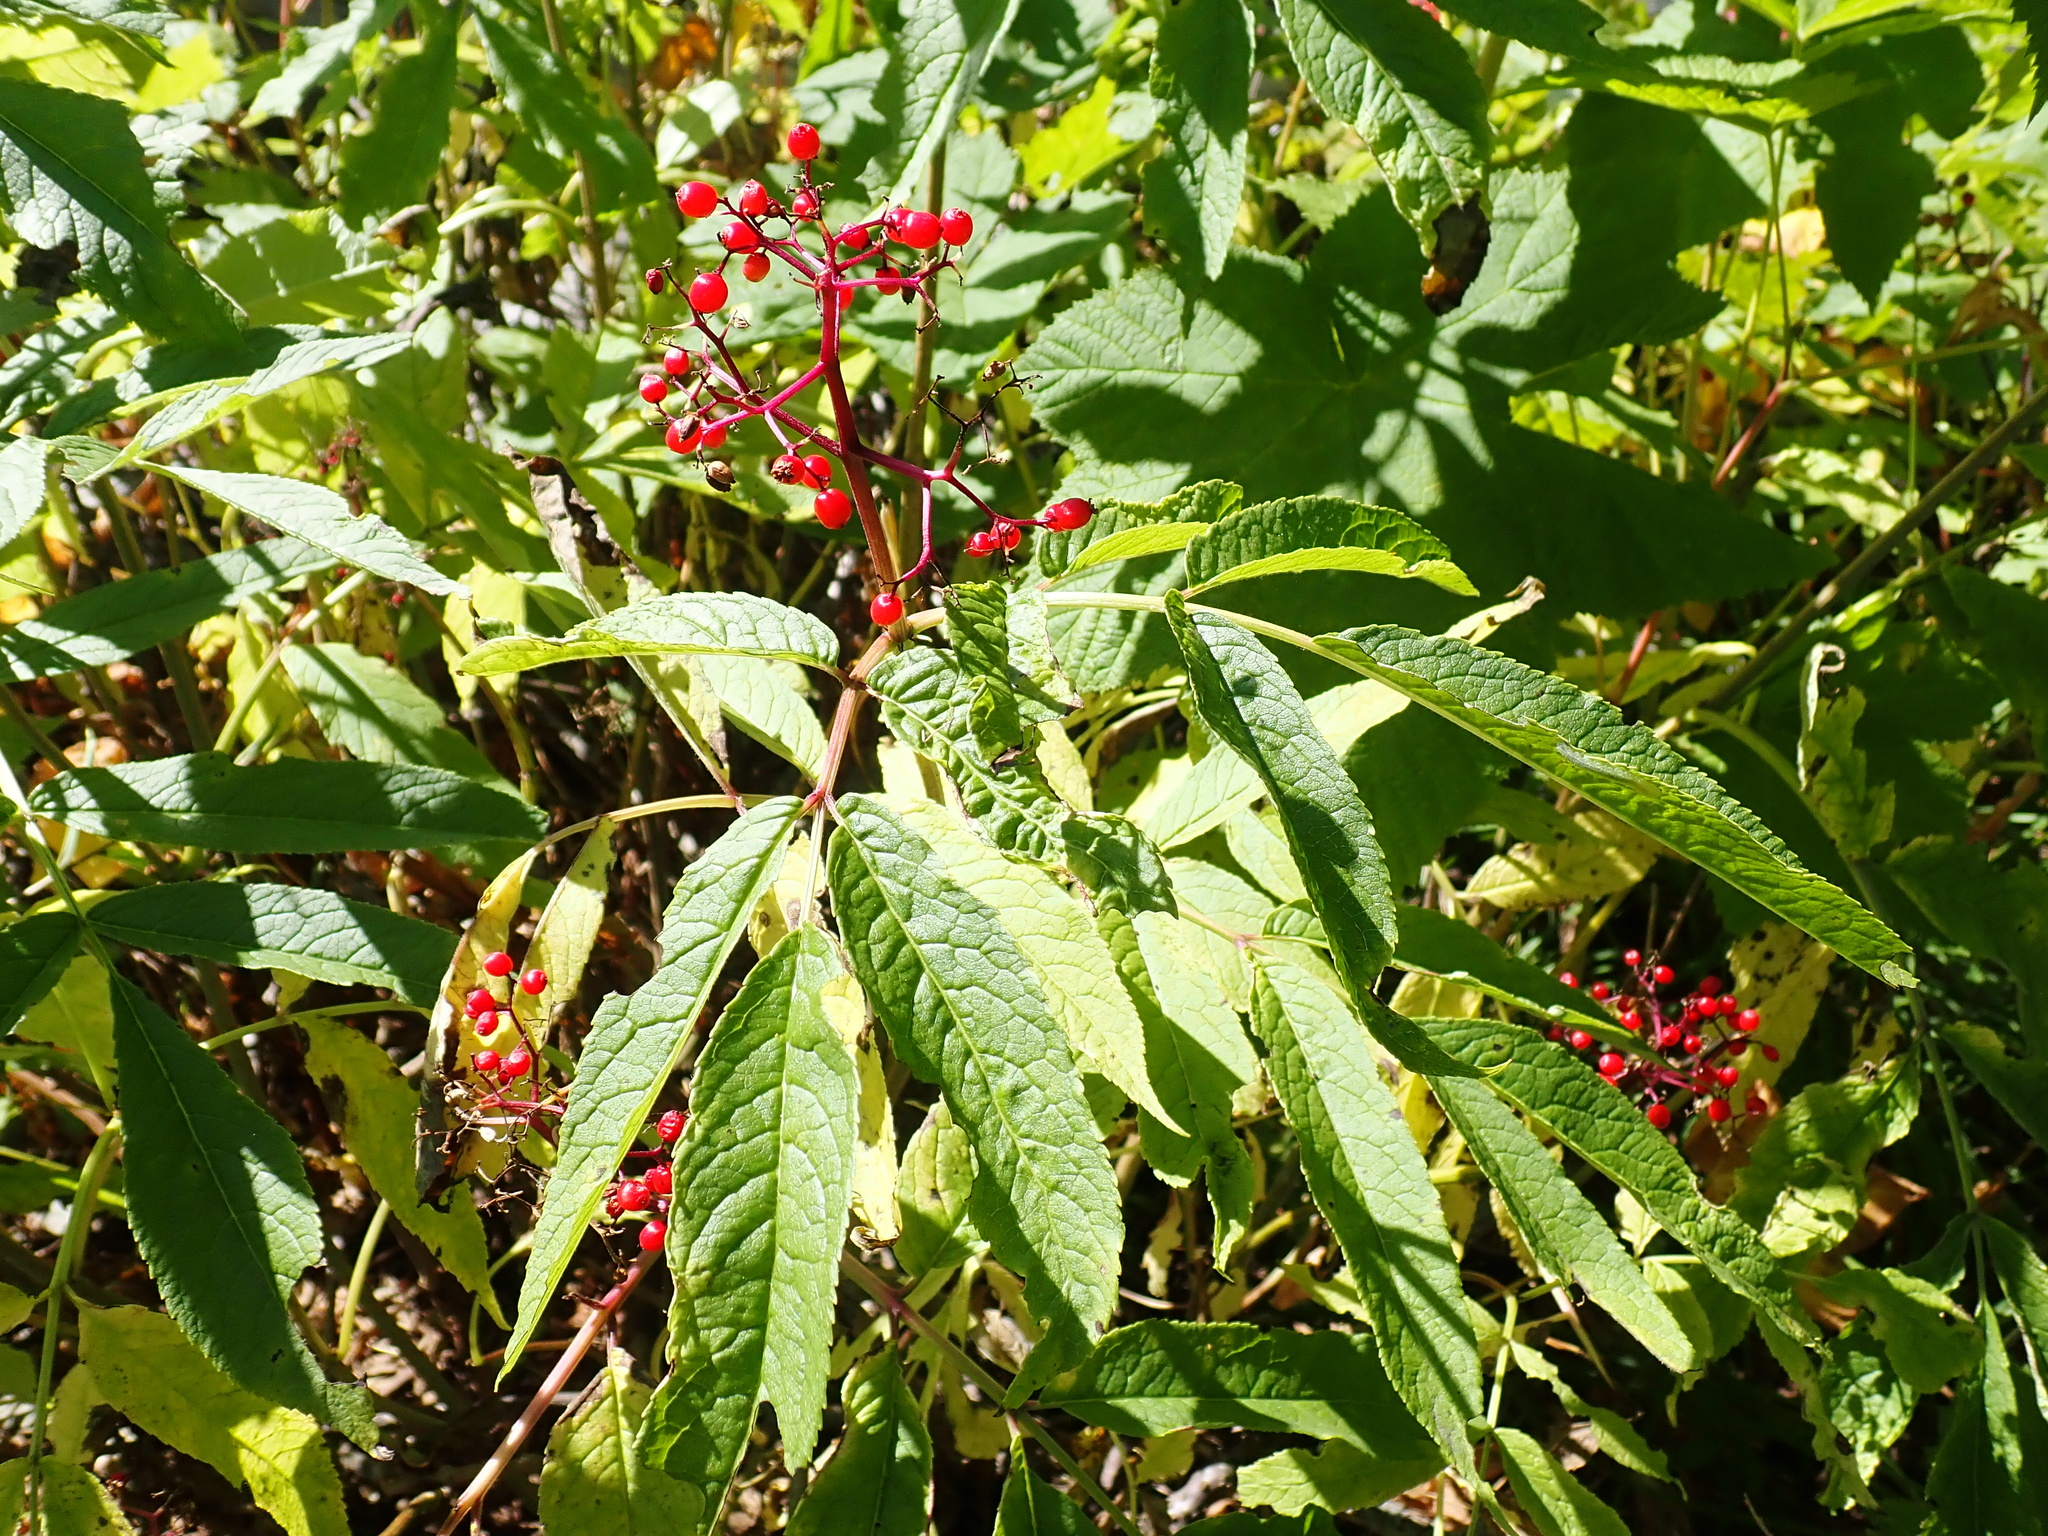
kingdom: Plantae
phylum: Tracheophyta
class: Magnoliopsida
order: Dipsacales
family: Viburnaceae
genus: Sambucus
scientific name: Sambucus racemosa
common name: Red-berried elder
